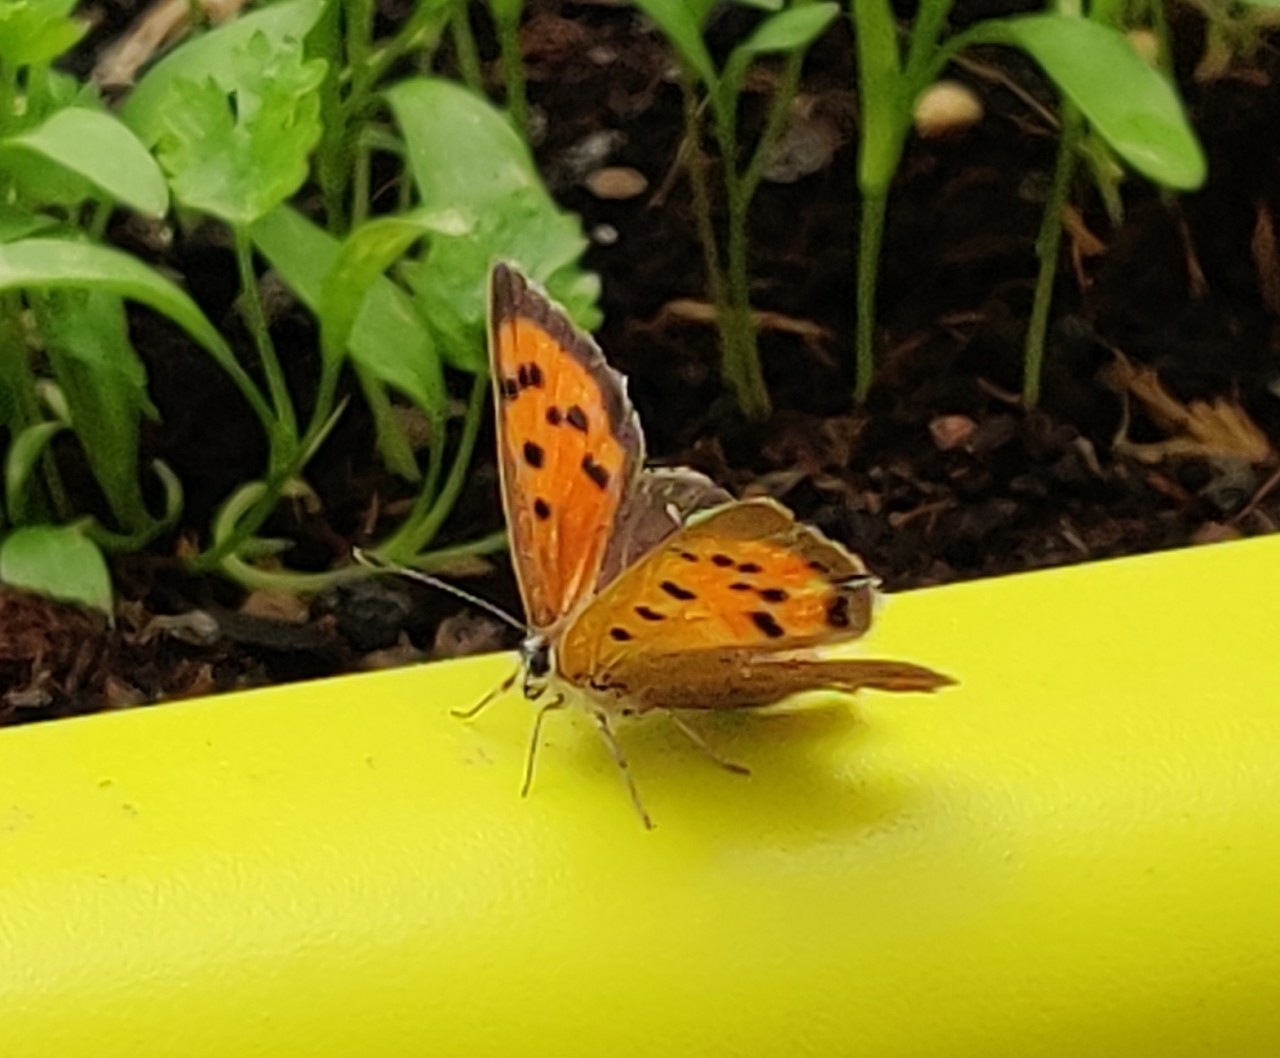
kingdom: Animalia
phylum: Arthropoda
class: Insecta
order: Lepidoptera
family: Lycaenidae
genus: Lycaena
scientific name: Lycaena phlaeas
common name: Small copper
